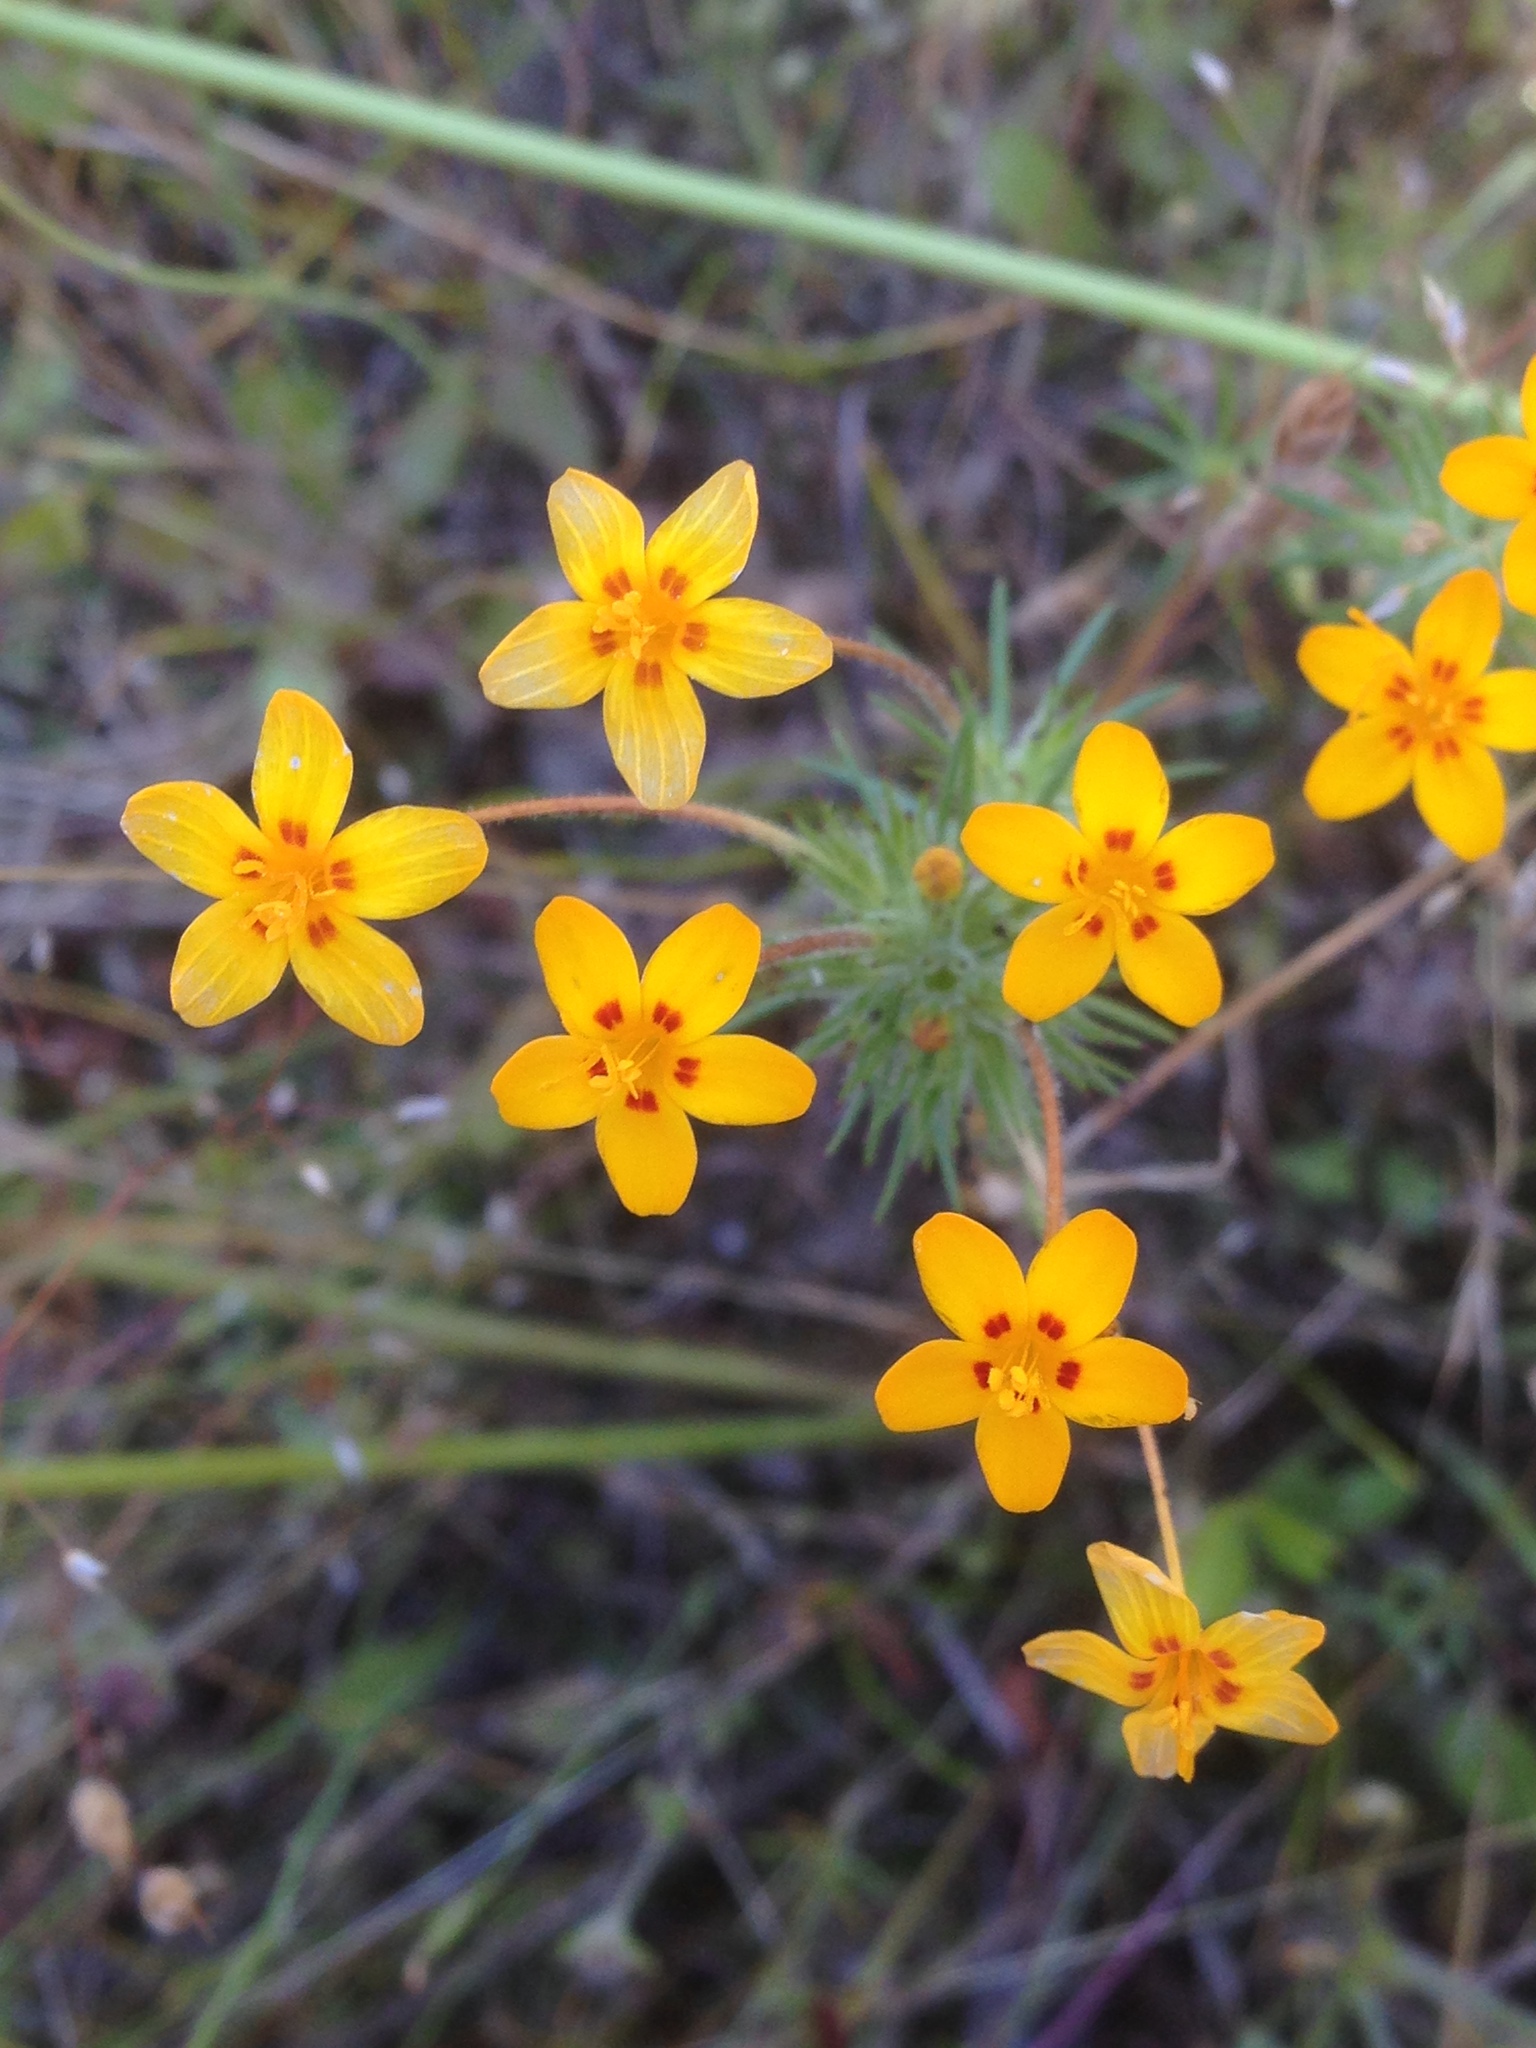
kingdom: Plantae
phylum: Tracheophyta
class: Magnoliopsida
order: Ericales
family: Polemoniaceae
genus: Leptosiphon
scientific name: Leptosiphon parviflorus
